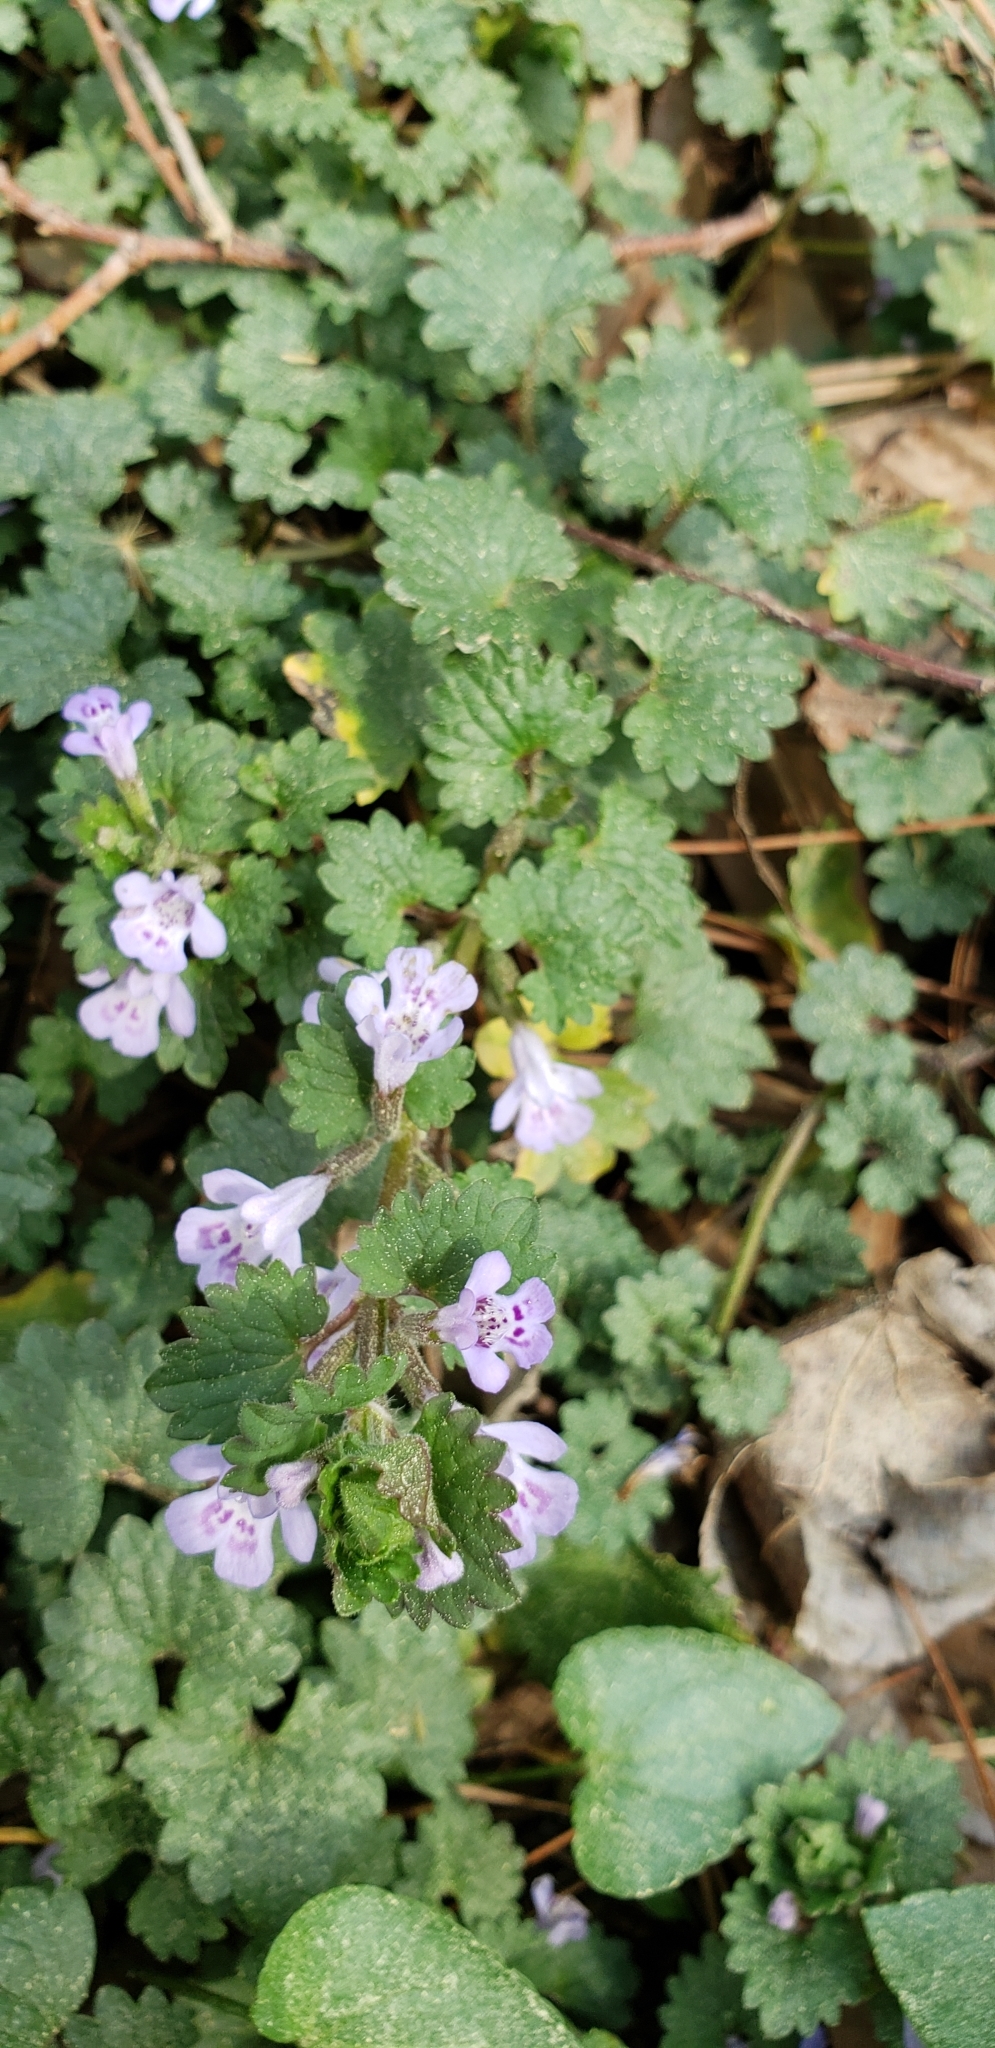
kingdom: Plantae
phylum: Tracheophyta
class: Magnoliopsida
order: Lamiales
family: Lamiaceae
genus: Glechoma
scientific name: Glechoma hederacea
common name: Ground ivy
